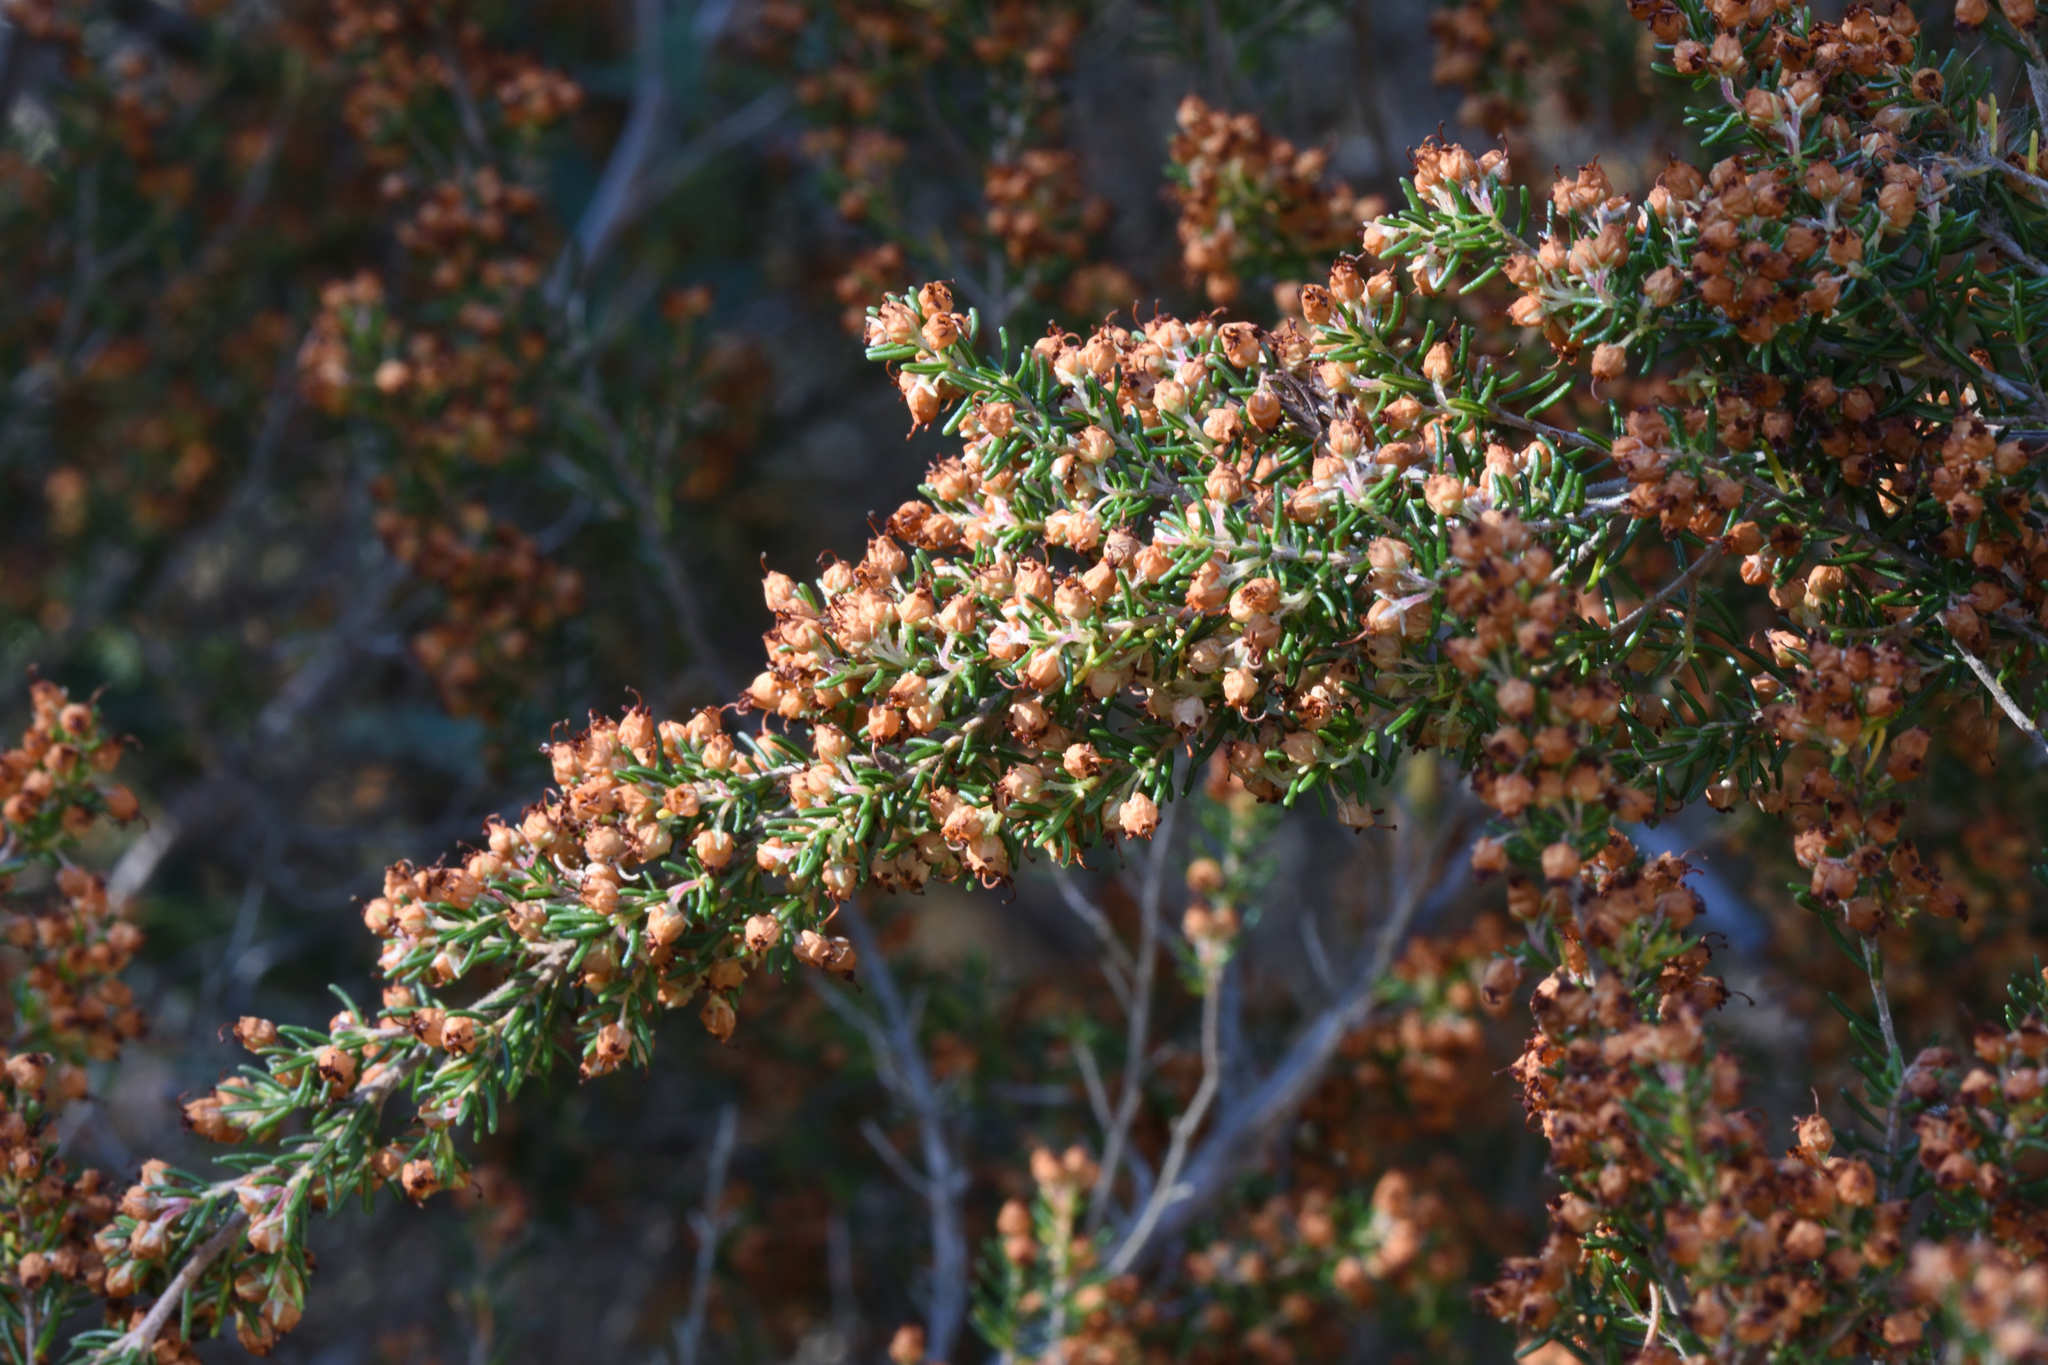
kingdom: Plantae
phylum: Tracheophyta
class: Magnoliopsida
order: Ericales
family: Ericaceae
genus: Erica
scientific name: Erica sparsa
